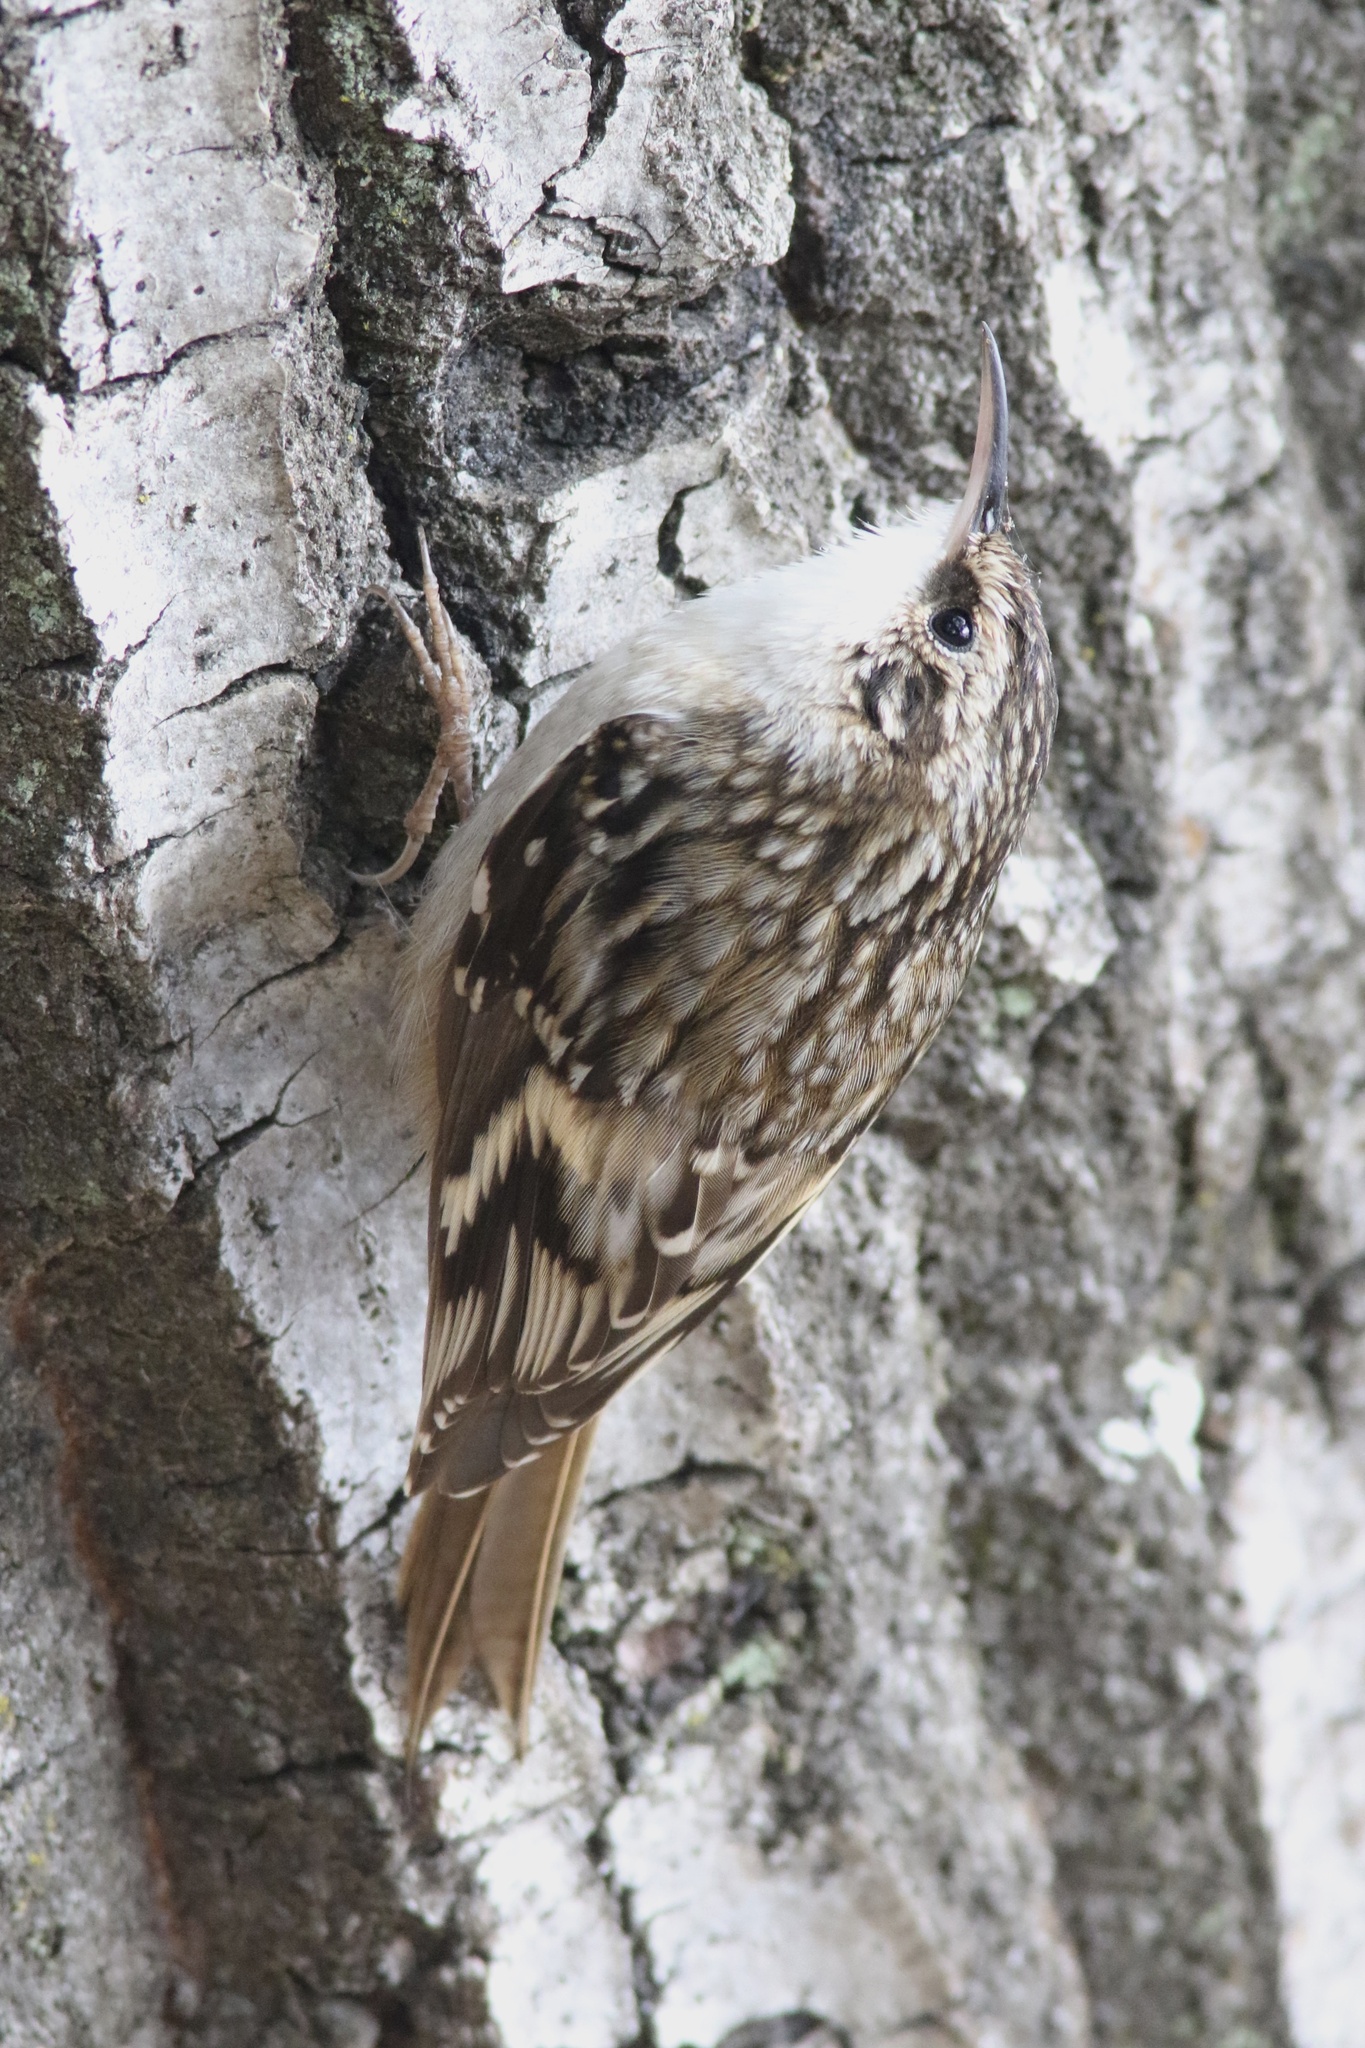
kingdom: Animalia
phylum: Chordata
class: Aves
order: Passeriformes
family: Certhiidae
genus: Certhia
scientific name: Certhia americana
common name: Brown creeper
